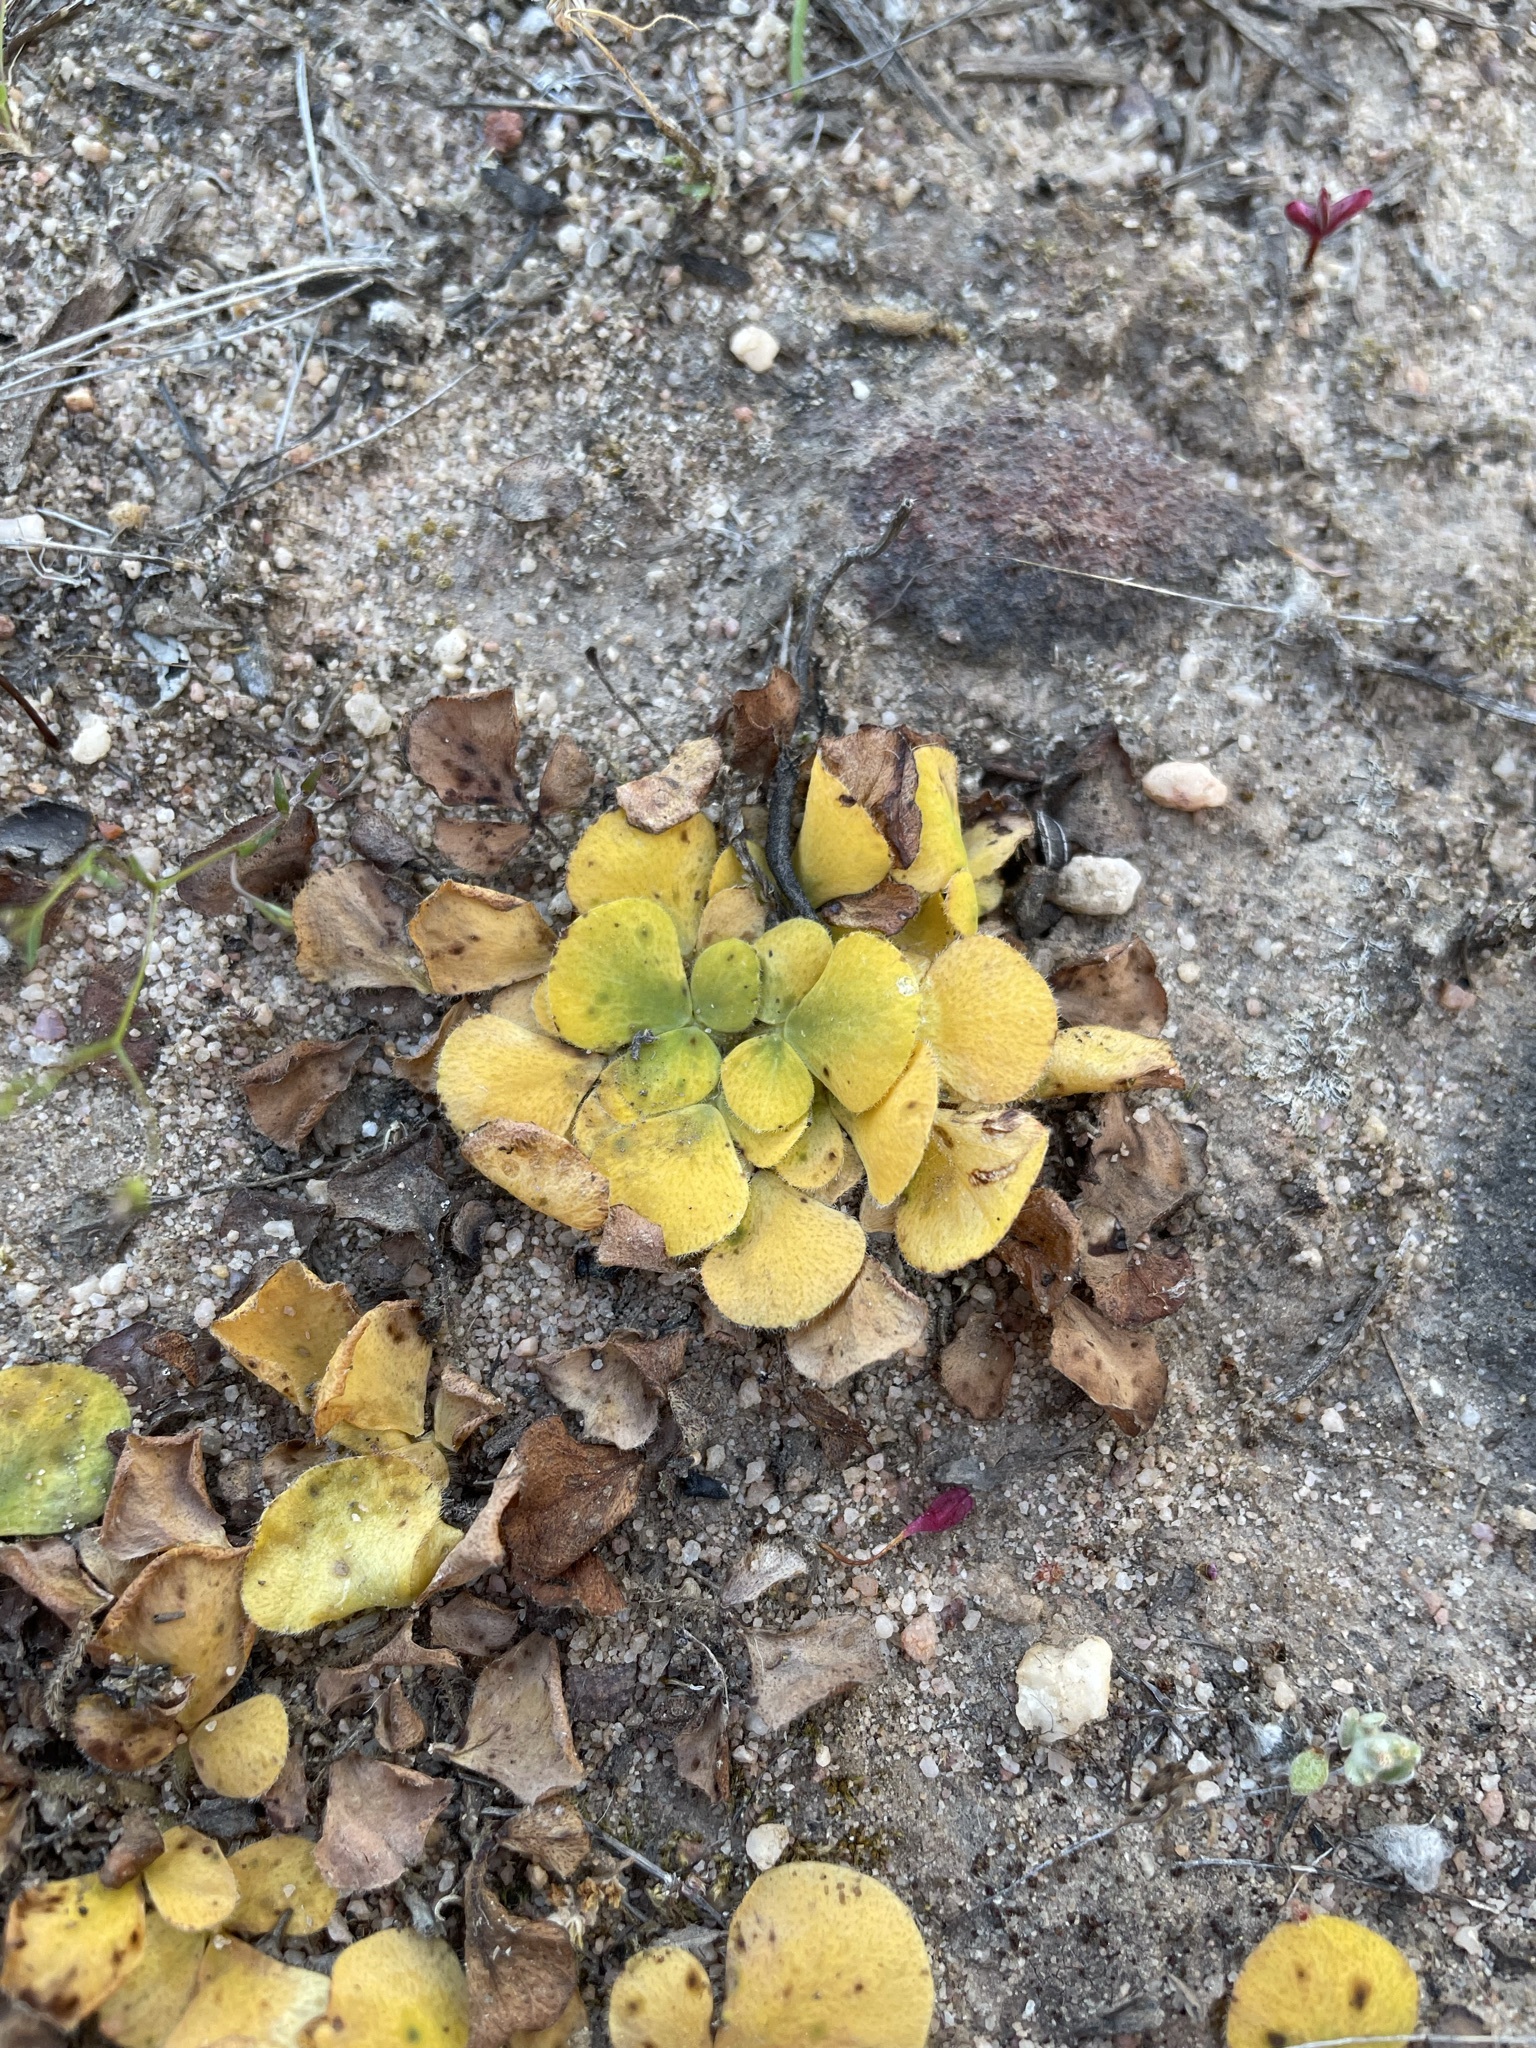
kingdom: Plantae
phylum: Tracheophyta
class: Magnoliopsida
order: Oxalidales
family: Oxalidaceae
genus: Oxalis
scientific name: Oxalis purpurea
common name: Purple woodsorrel
